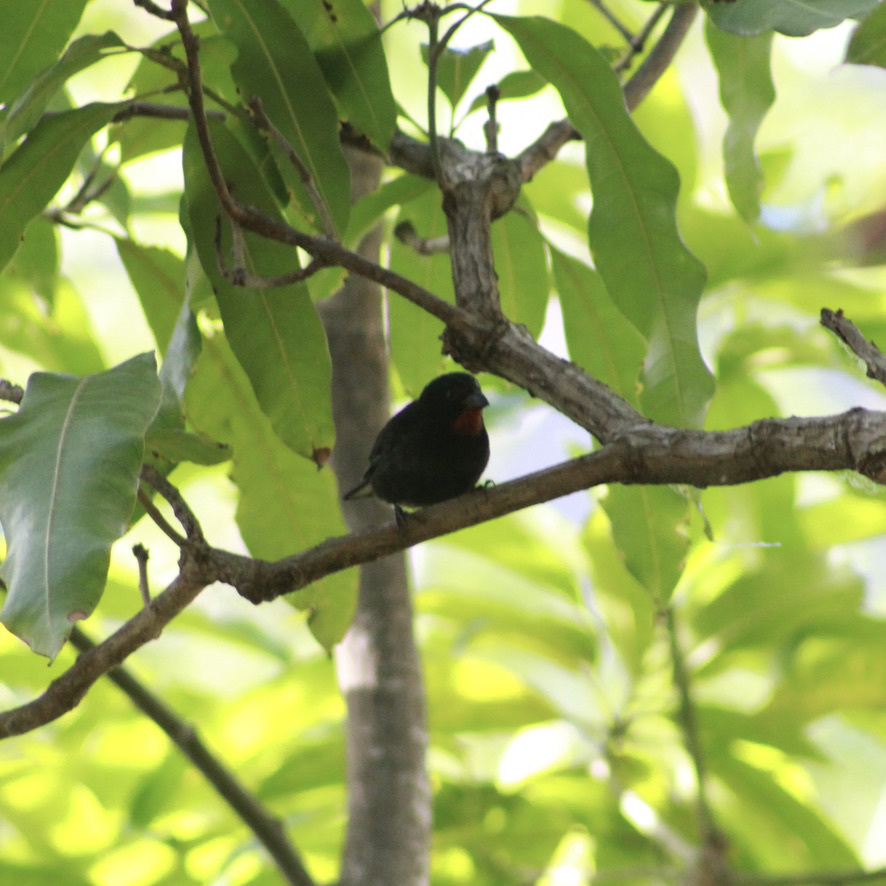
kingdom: Animalia
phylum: Chordata
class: Aves
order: Passeriformes
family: Thraupidae
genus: Loxigilla
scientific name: Loxigilla noctis
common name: Lesser antillean bullfinch
